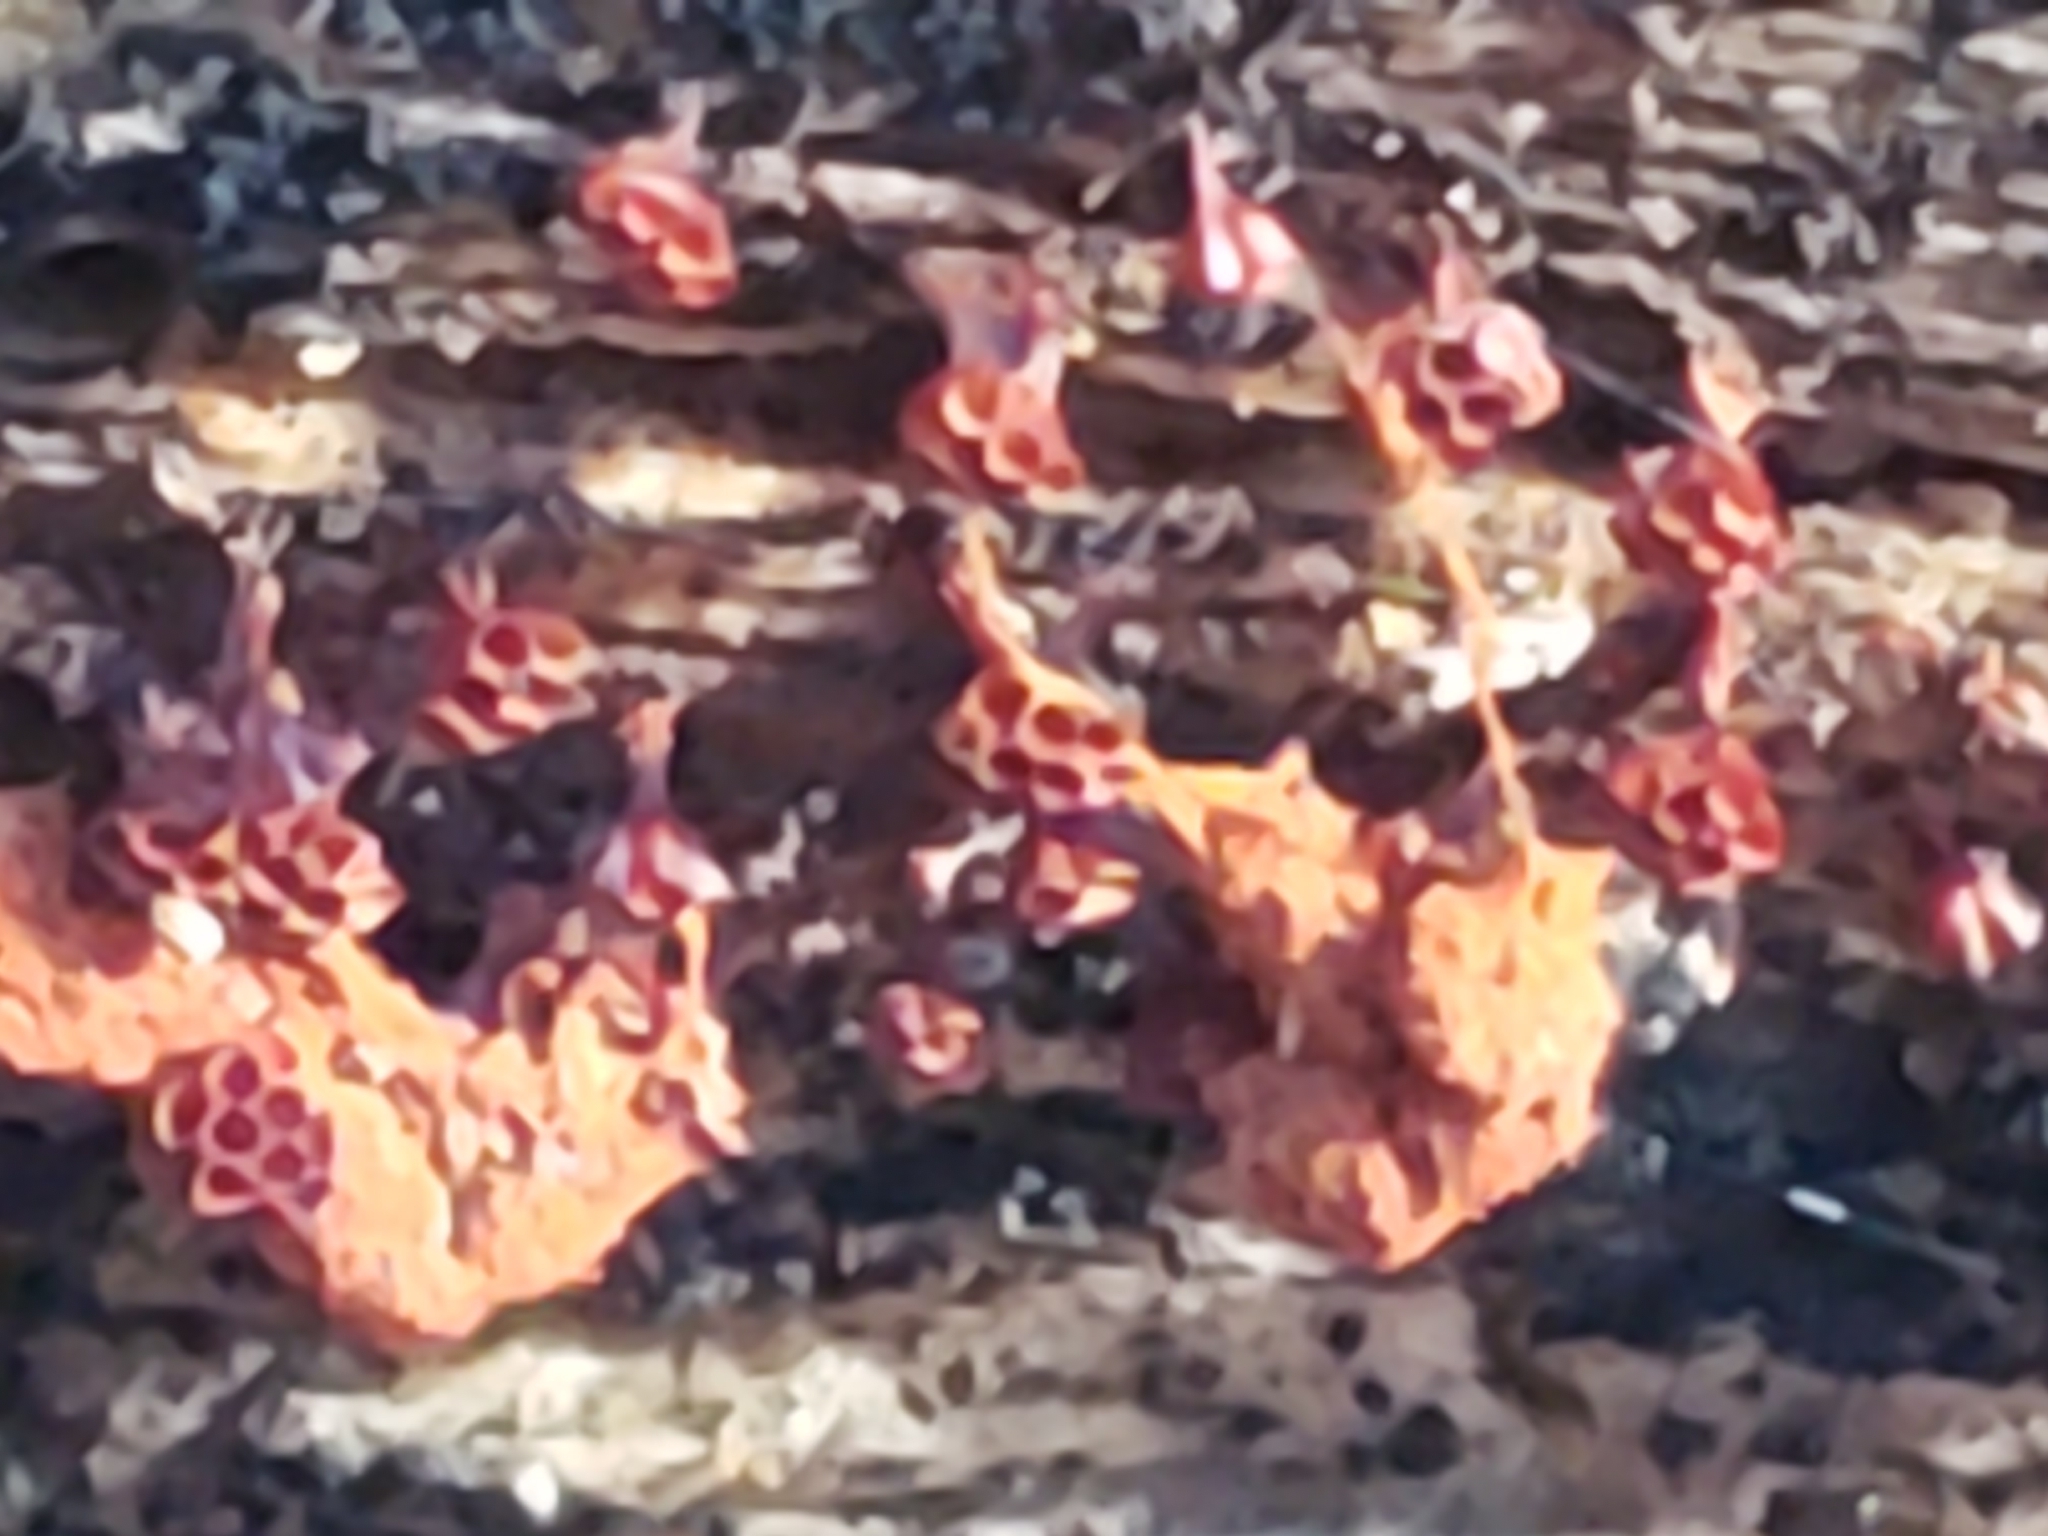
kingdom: Protozoa
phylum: Mycetozoa
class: Myxomycetes
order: Trichiales
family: Trichiaceae
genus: Metatrichia
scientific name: Metatrichia vesparia
